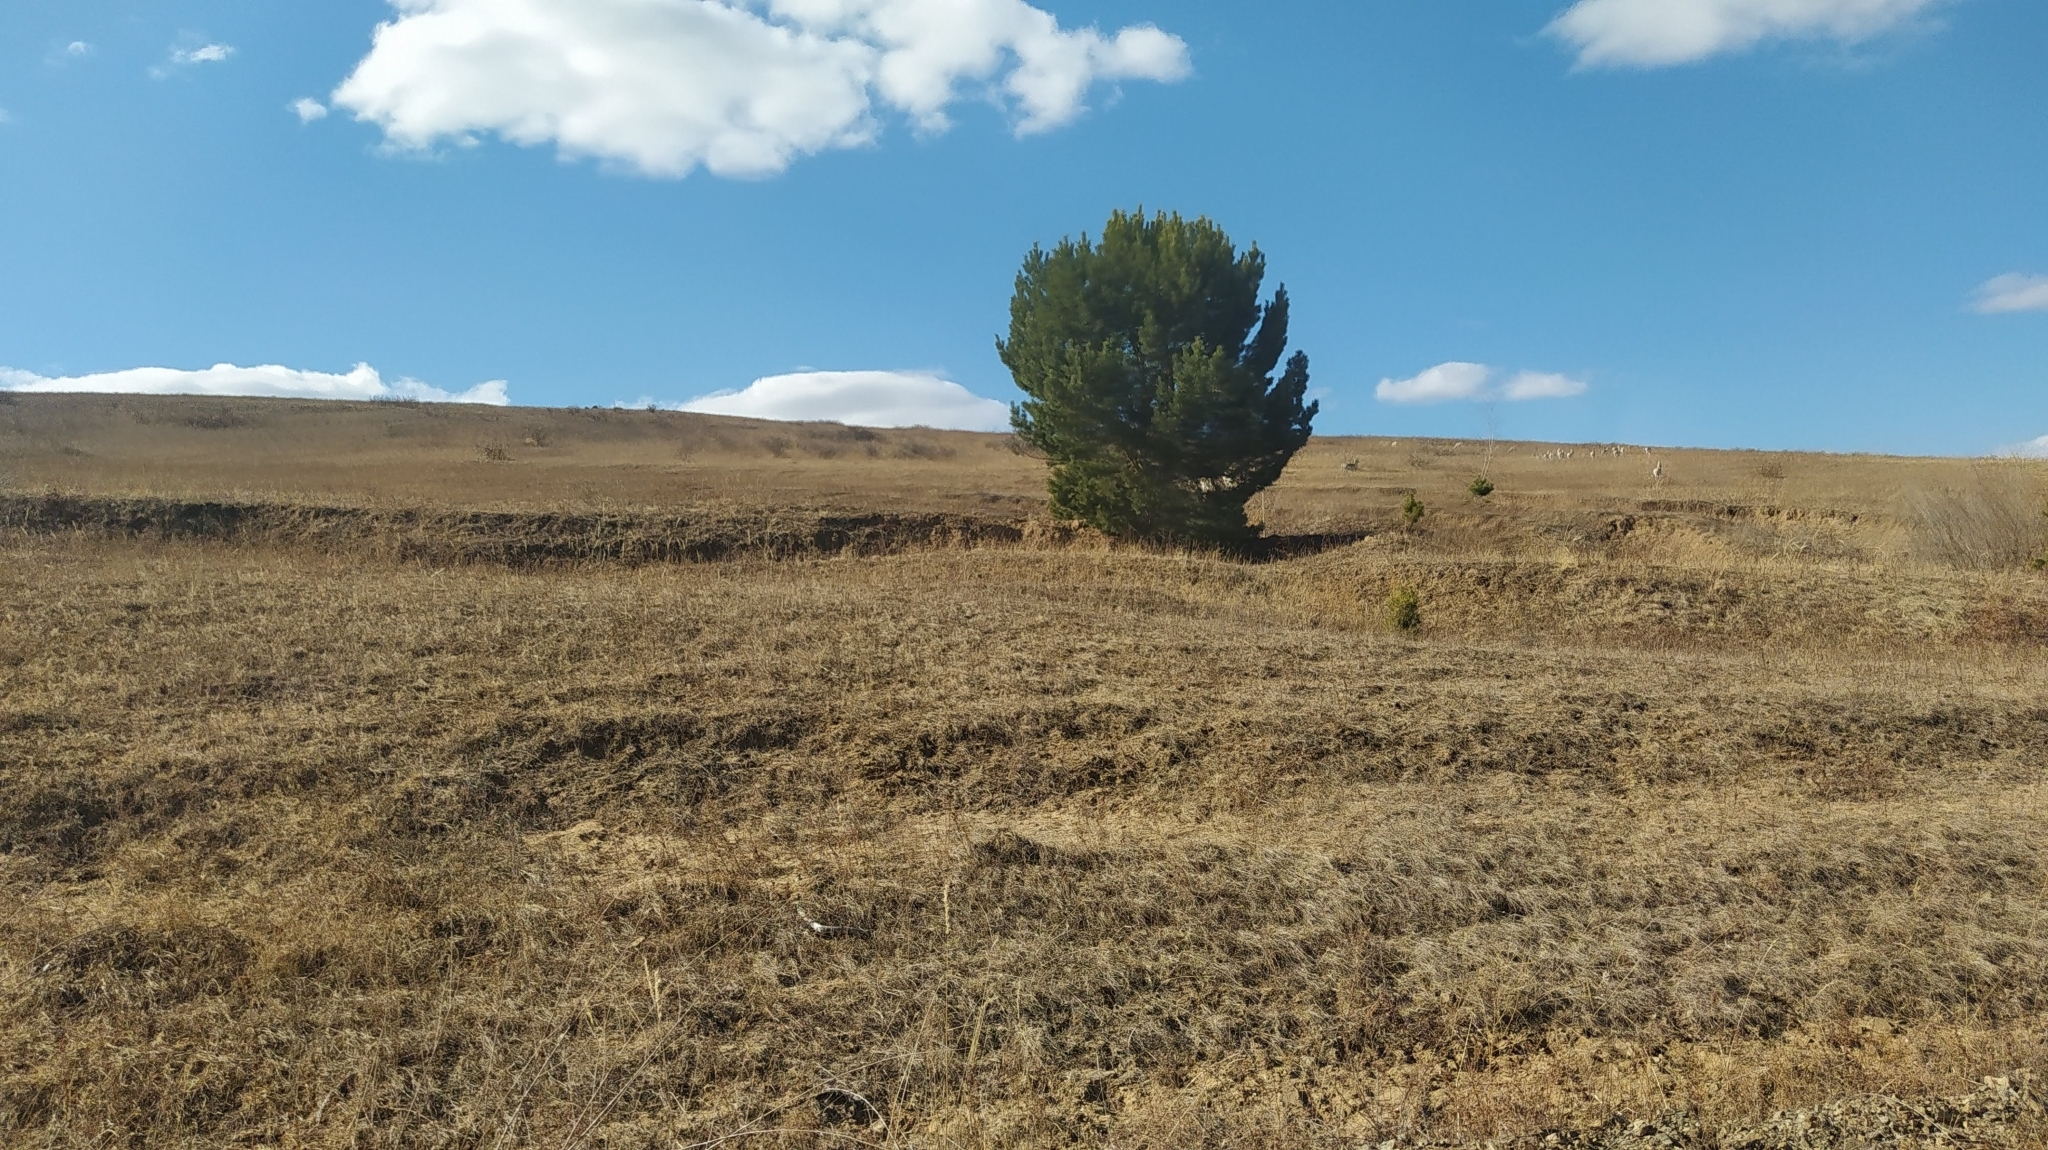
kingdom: Plantae
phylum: Tracheophyta
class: Pinopsida
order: Pinales
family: Pinaceae
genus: Pinus
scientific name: Pinus sylvestris
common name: Scots pine
